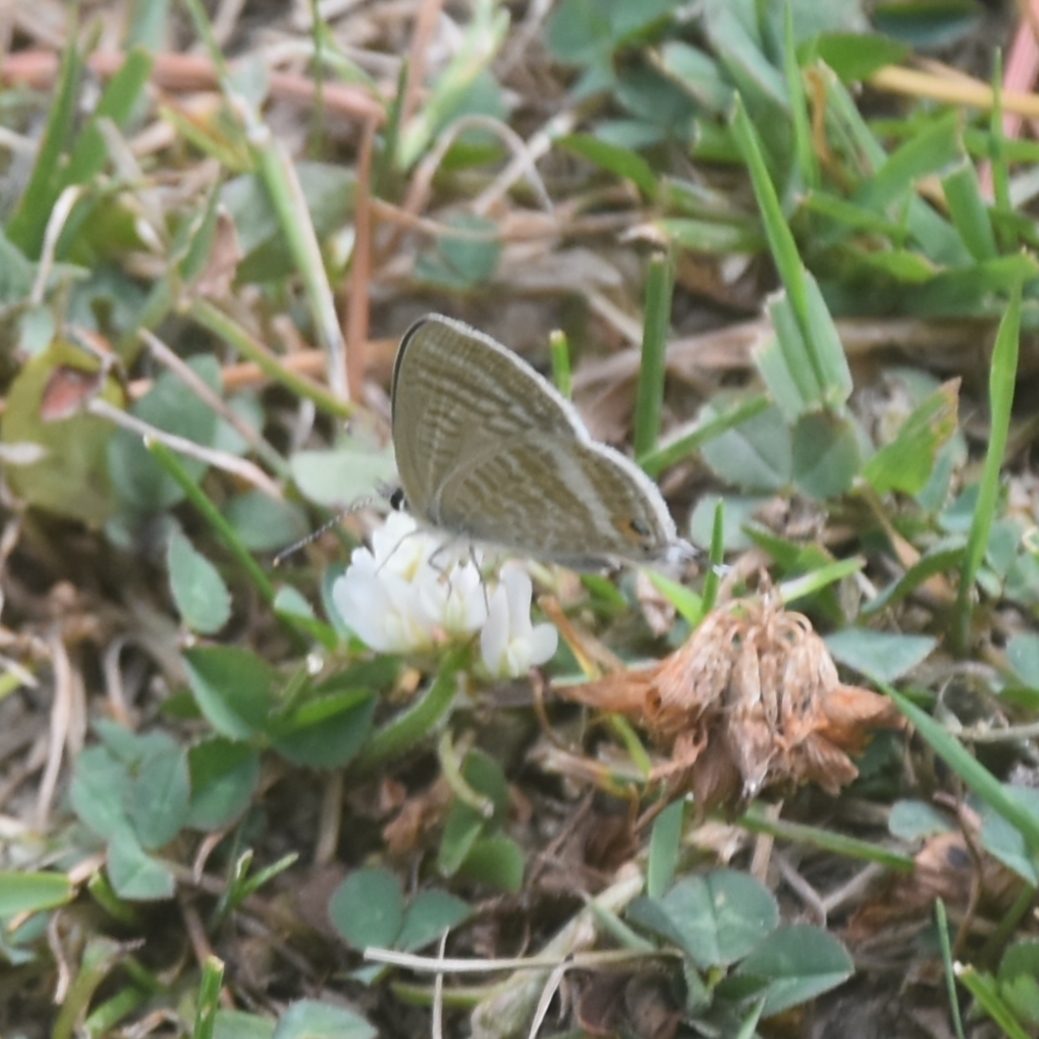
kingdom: Animalia
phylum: Arthropoda
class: Insecta
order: Lepidoptera
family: Lycaenidae
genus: Lampides
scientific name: Lampides boeticus
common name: Long-tailed blue
